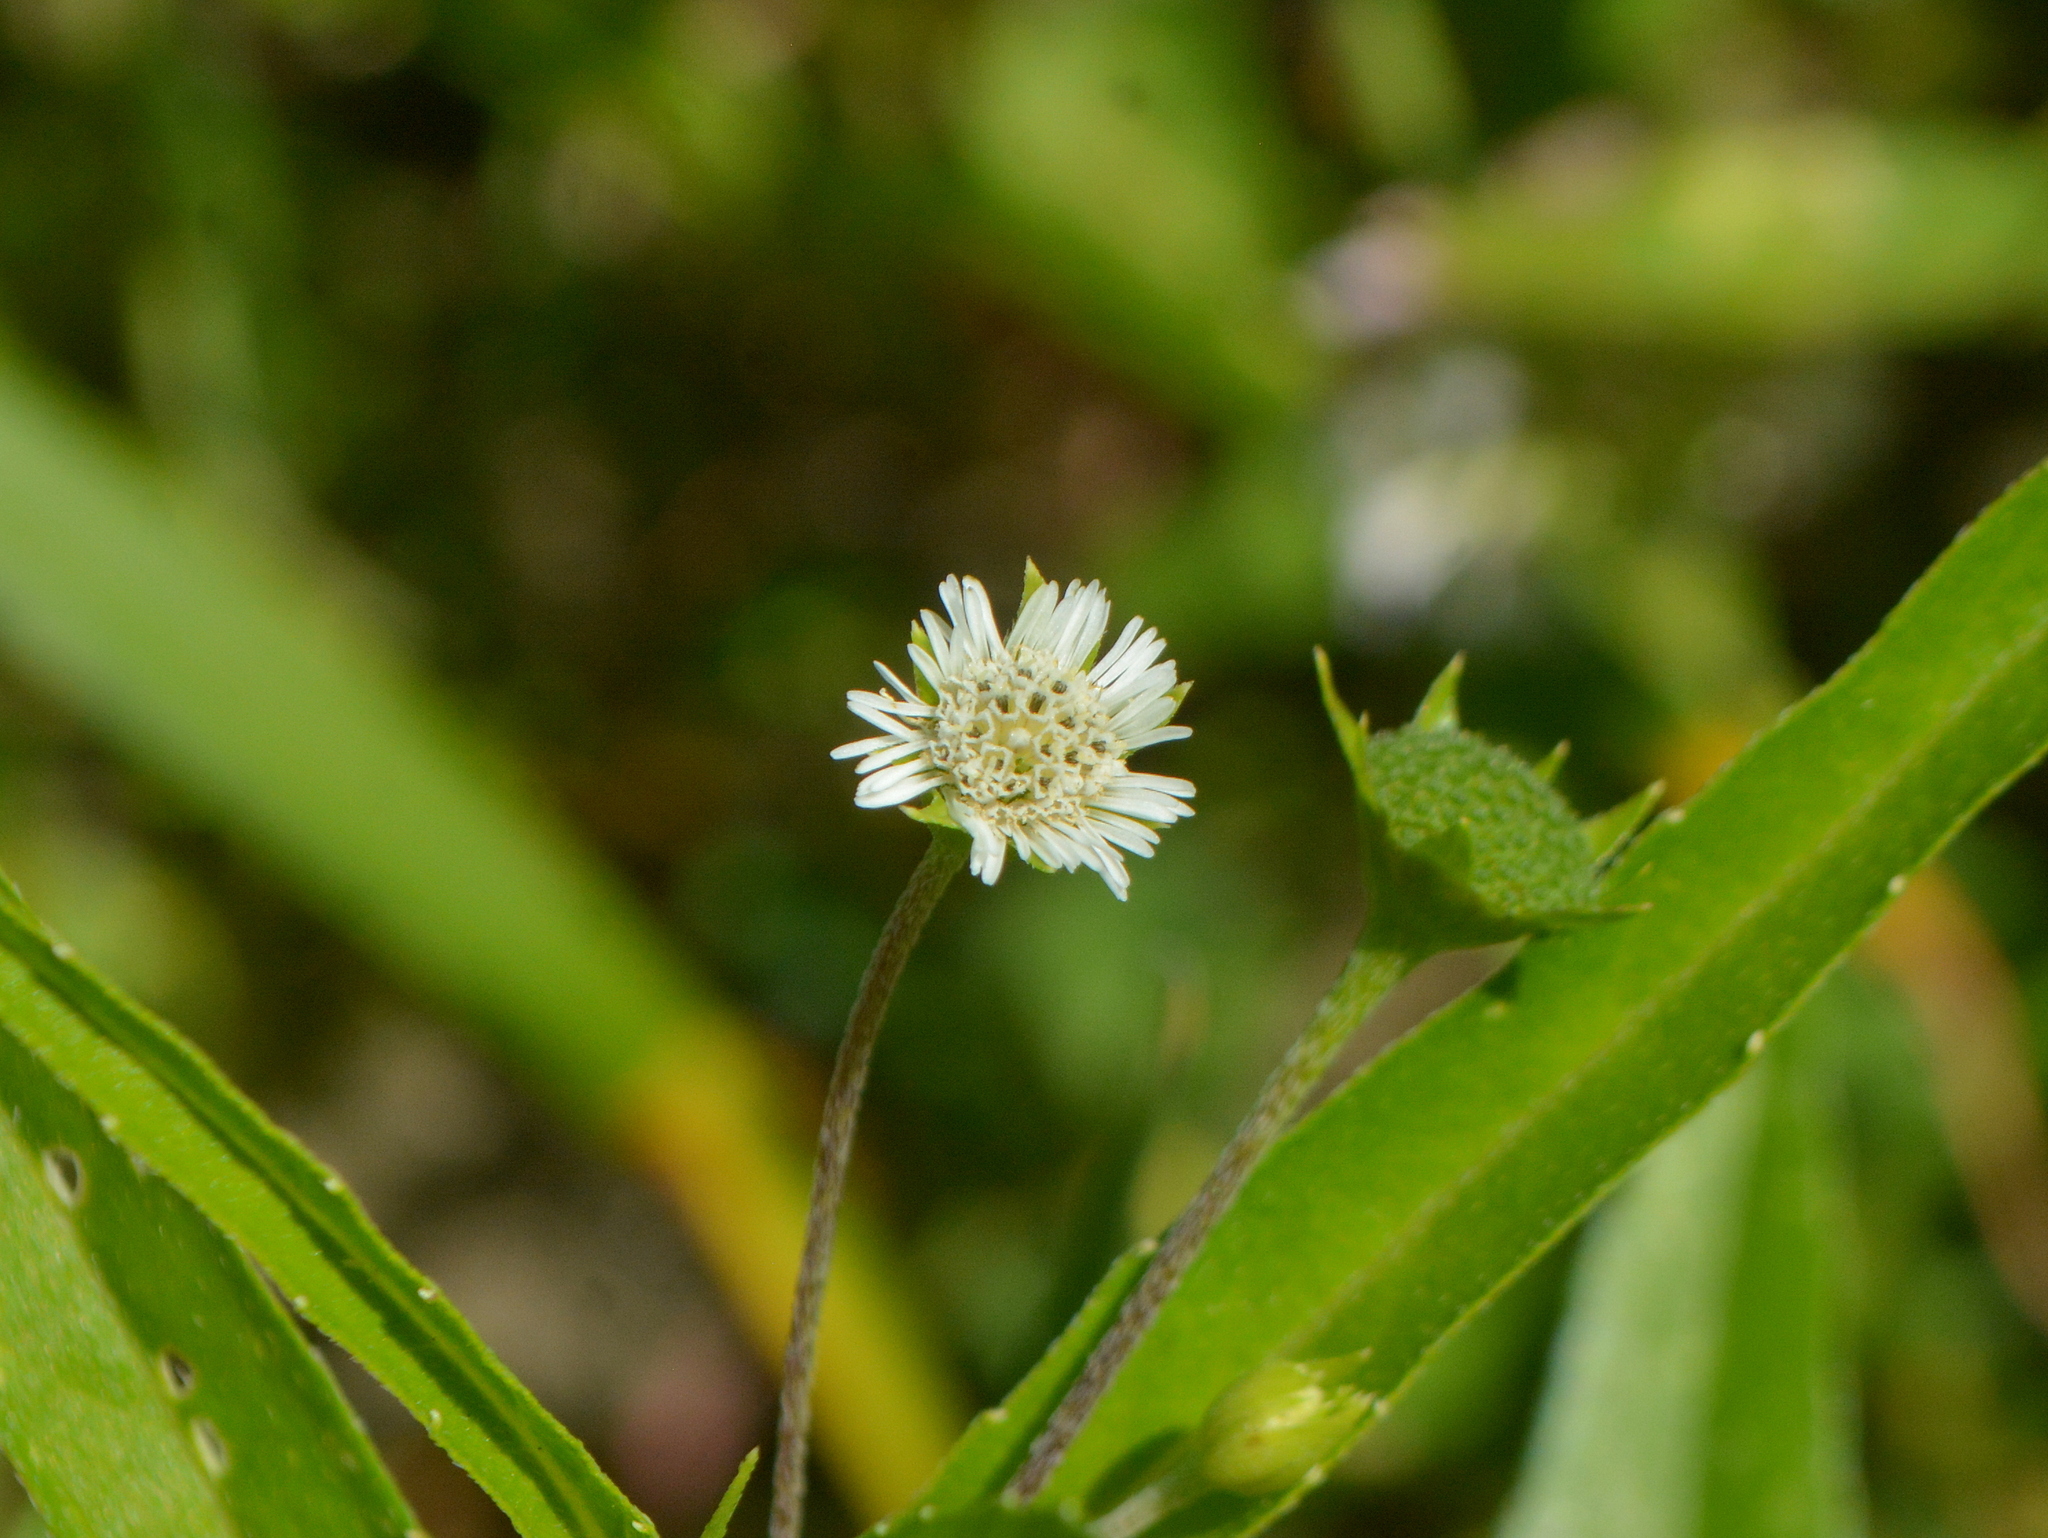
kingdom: Plantae
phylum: Tracheophyta
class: Magnoliopsida
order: Asterales
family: Asteraceae
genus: Eclipta
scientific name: Eclipta prostrata
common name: False daisy
